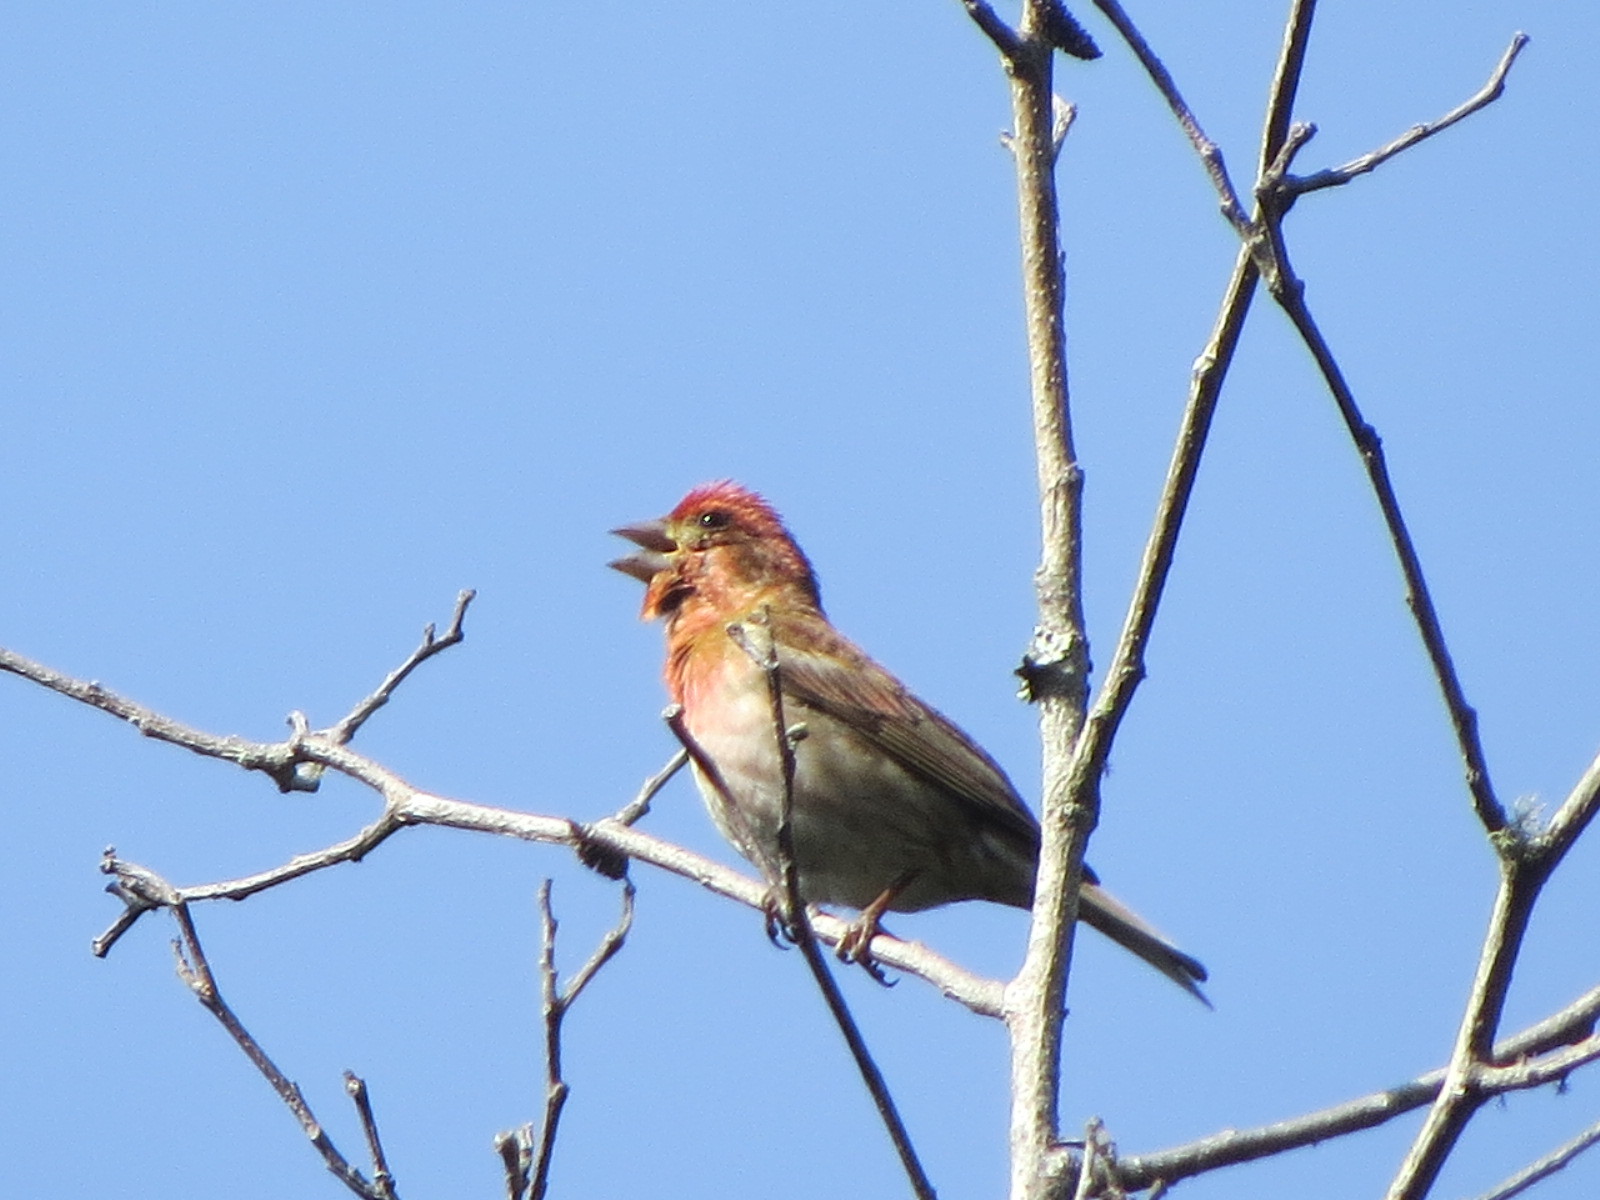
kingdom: Animalia
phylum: Chordata
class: Aves
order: Passeriformes
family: Fringillidae
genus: Haemorhous
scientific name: Haemorhous purpureus
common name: Purple finch
